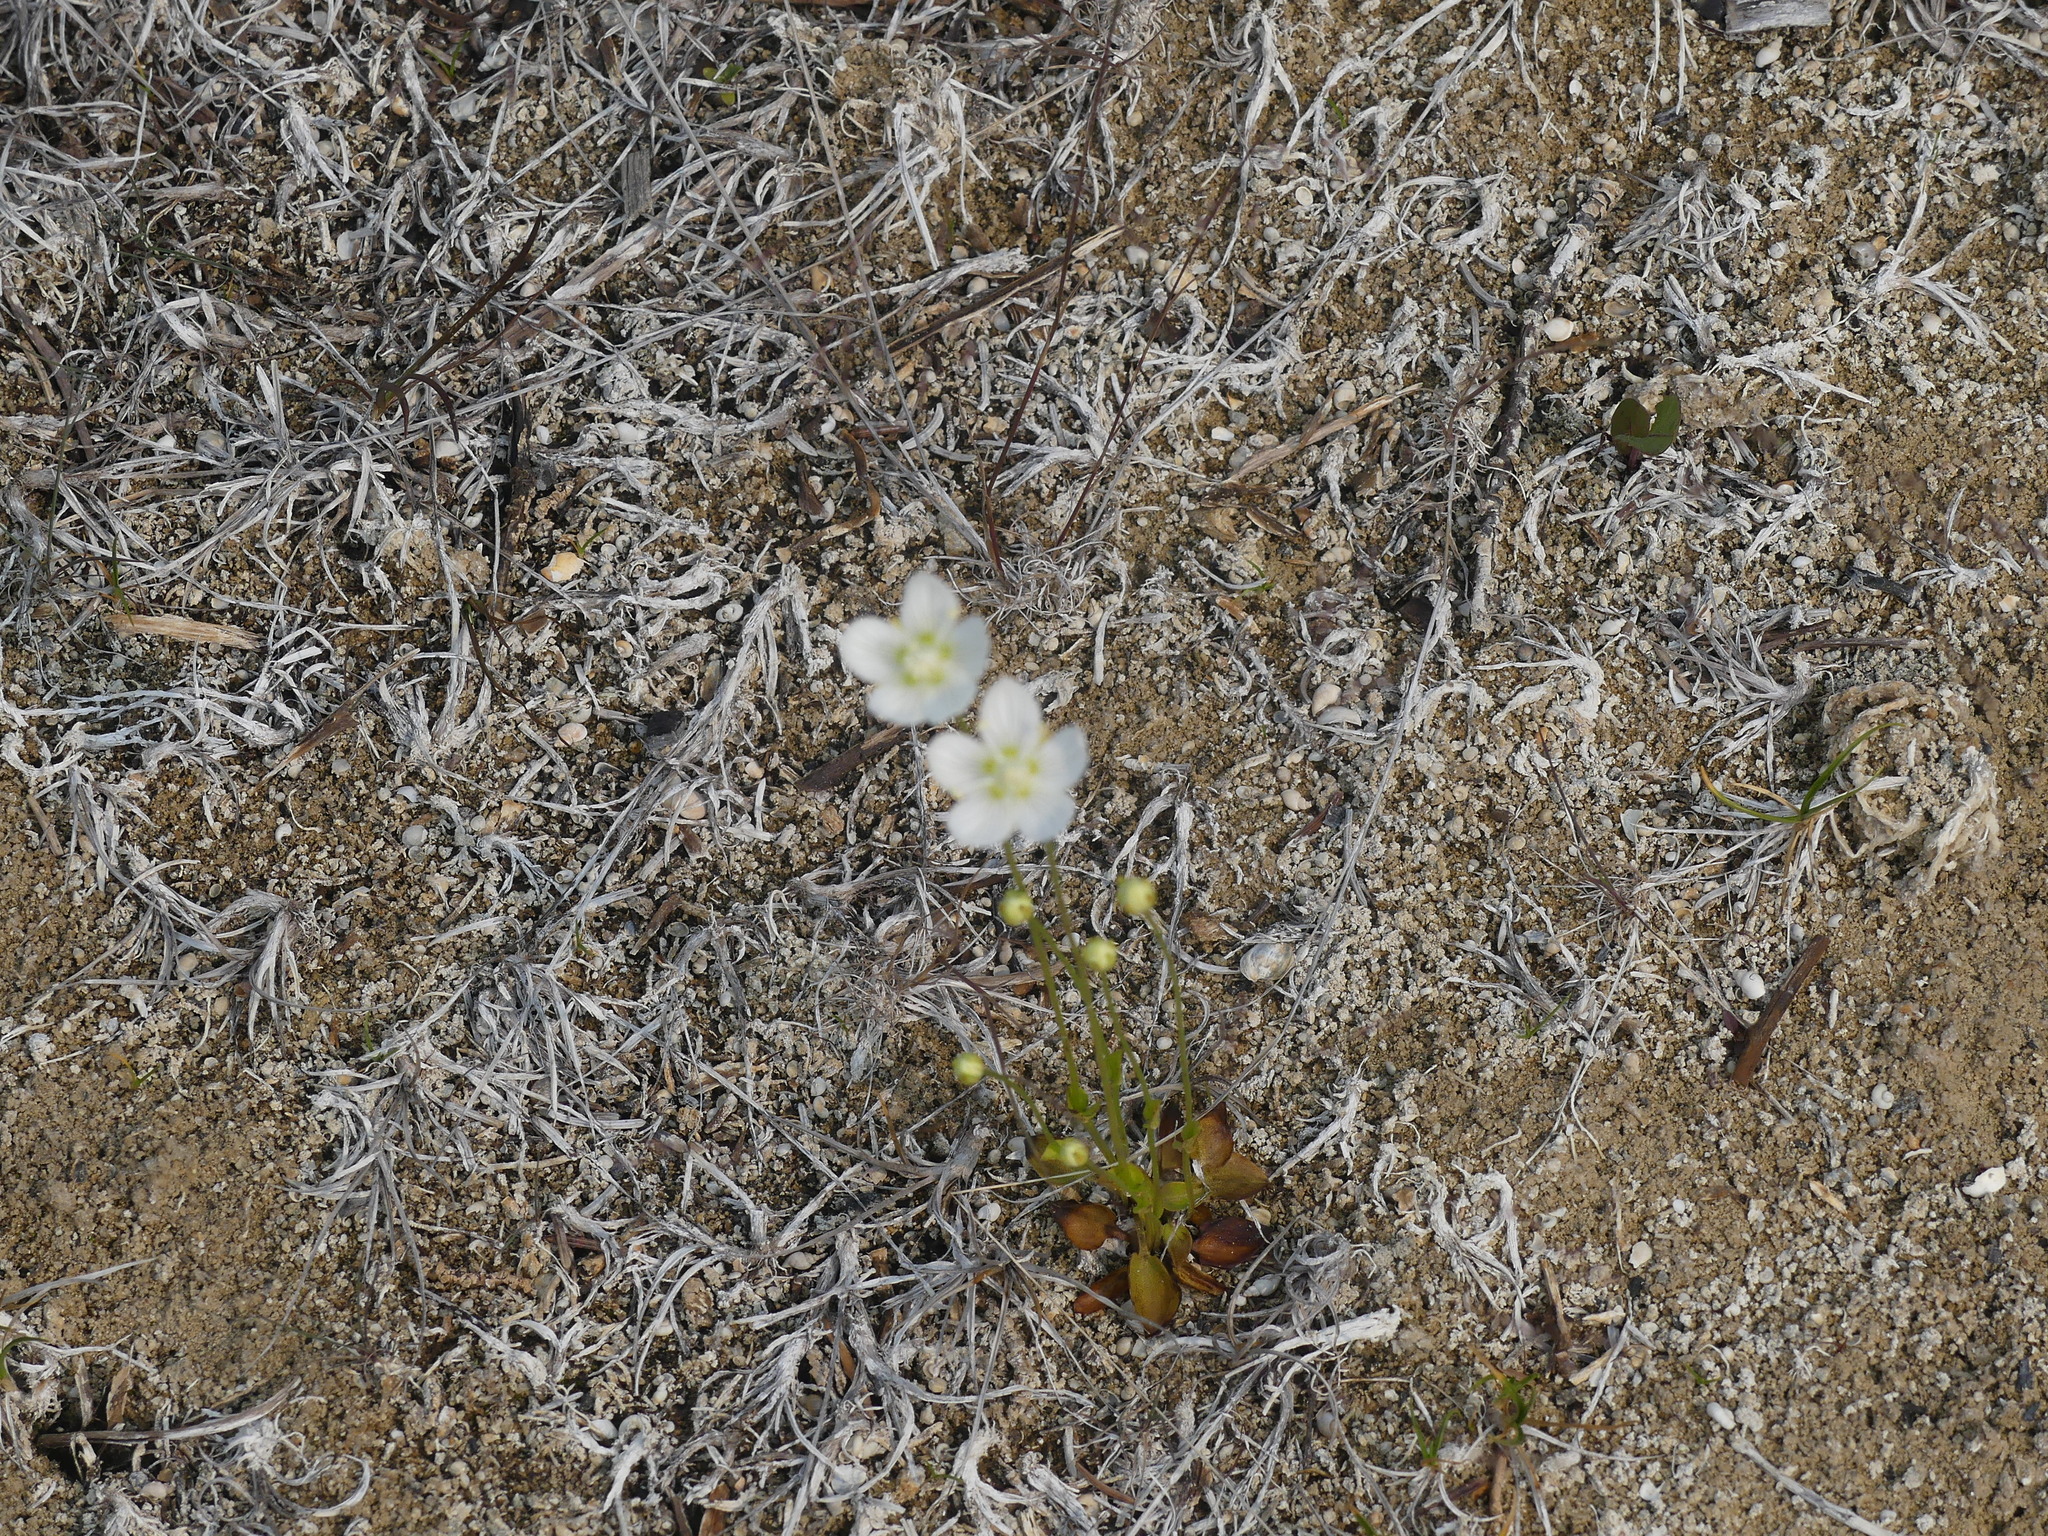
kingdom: Plantae
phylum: Tracheophyta
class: Magnoliopsida
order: Celastrales
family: Parnassiaceae
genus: Parnassia
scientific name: Parnassia palustris
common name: Grass-of-parnassus
